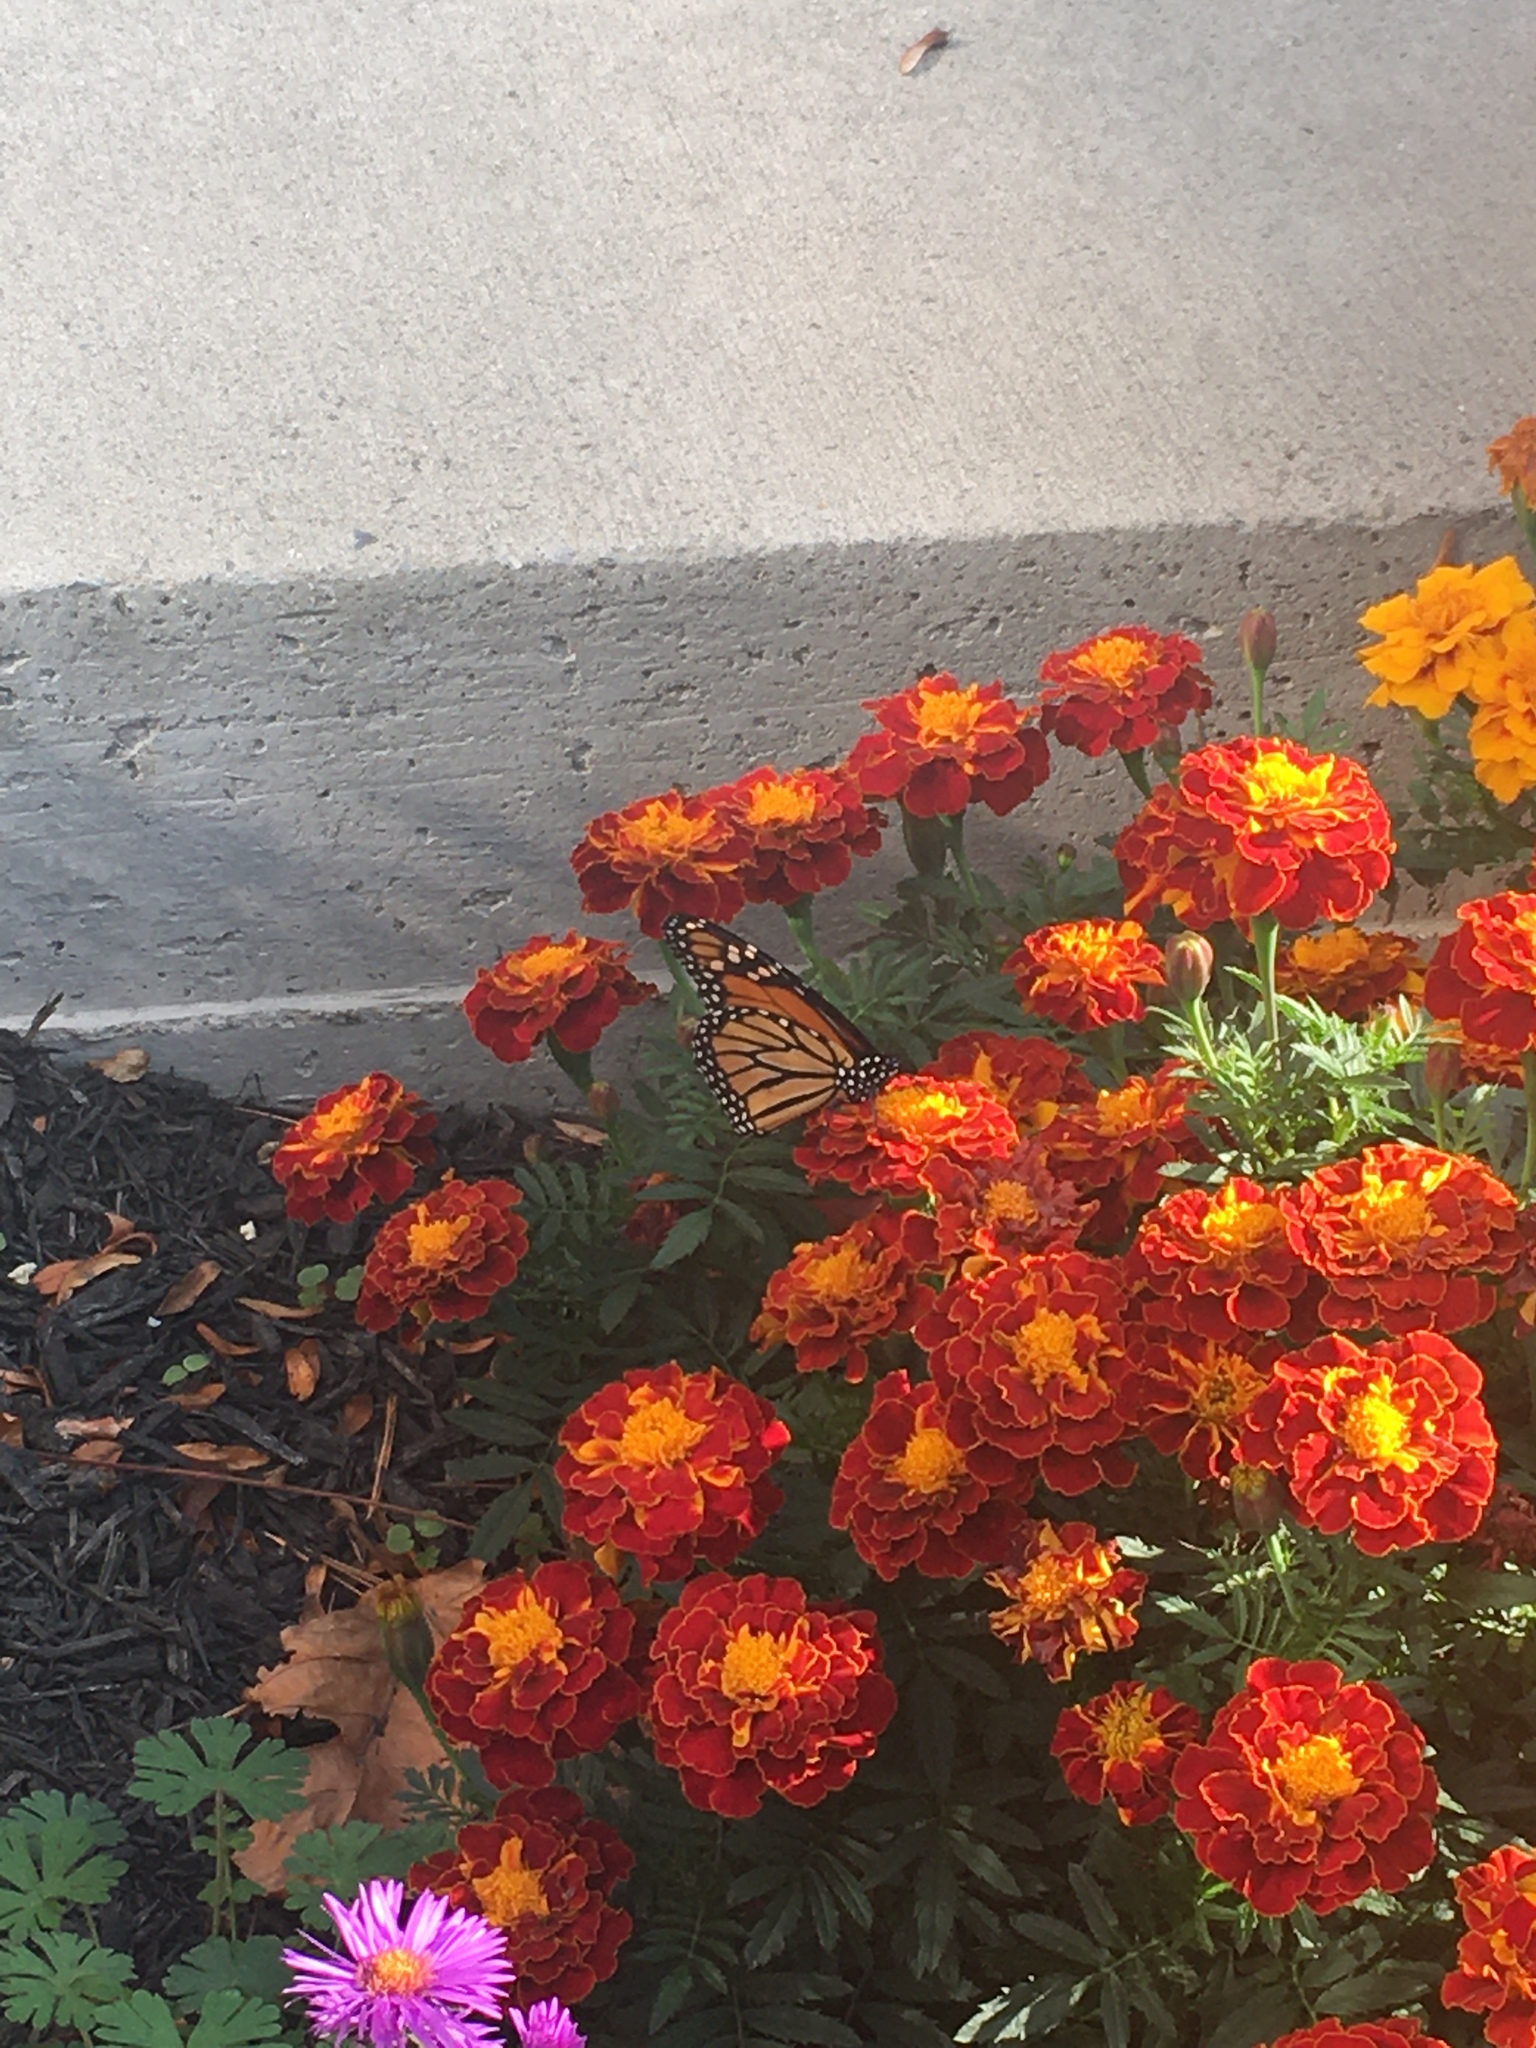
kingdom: Animalia
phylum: Arthropoda
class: Insecta
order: Lepidoptera
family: Nymphalidae
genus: Danaus
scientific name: Danaus plexippus
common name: Monarch
